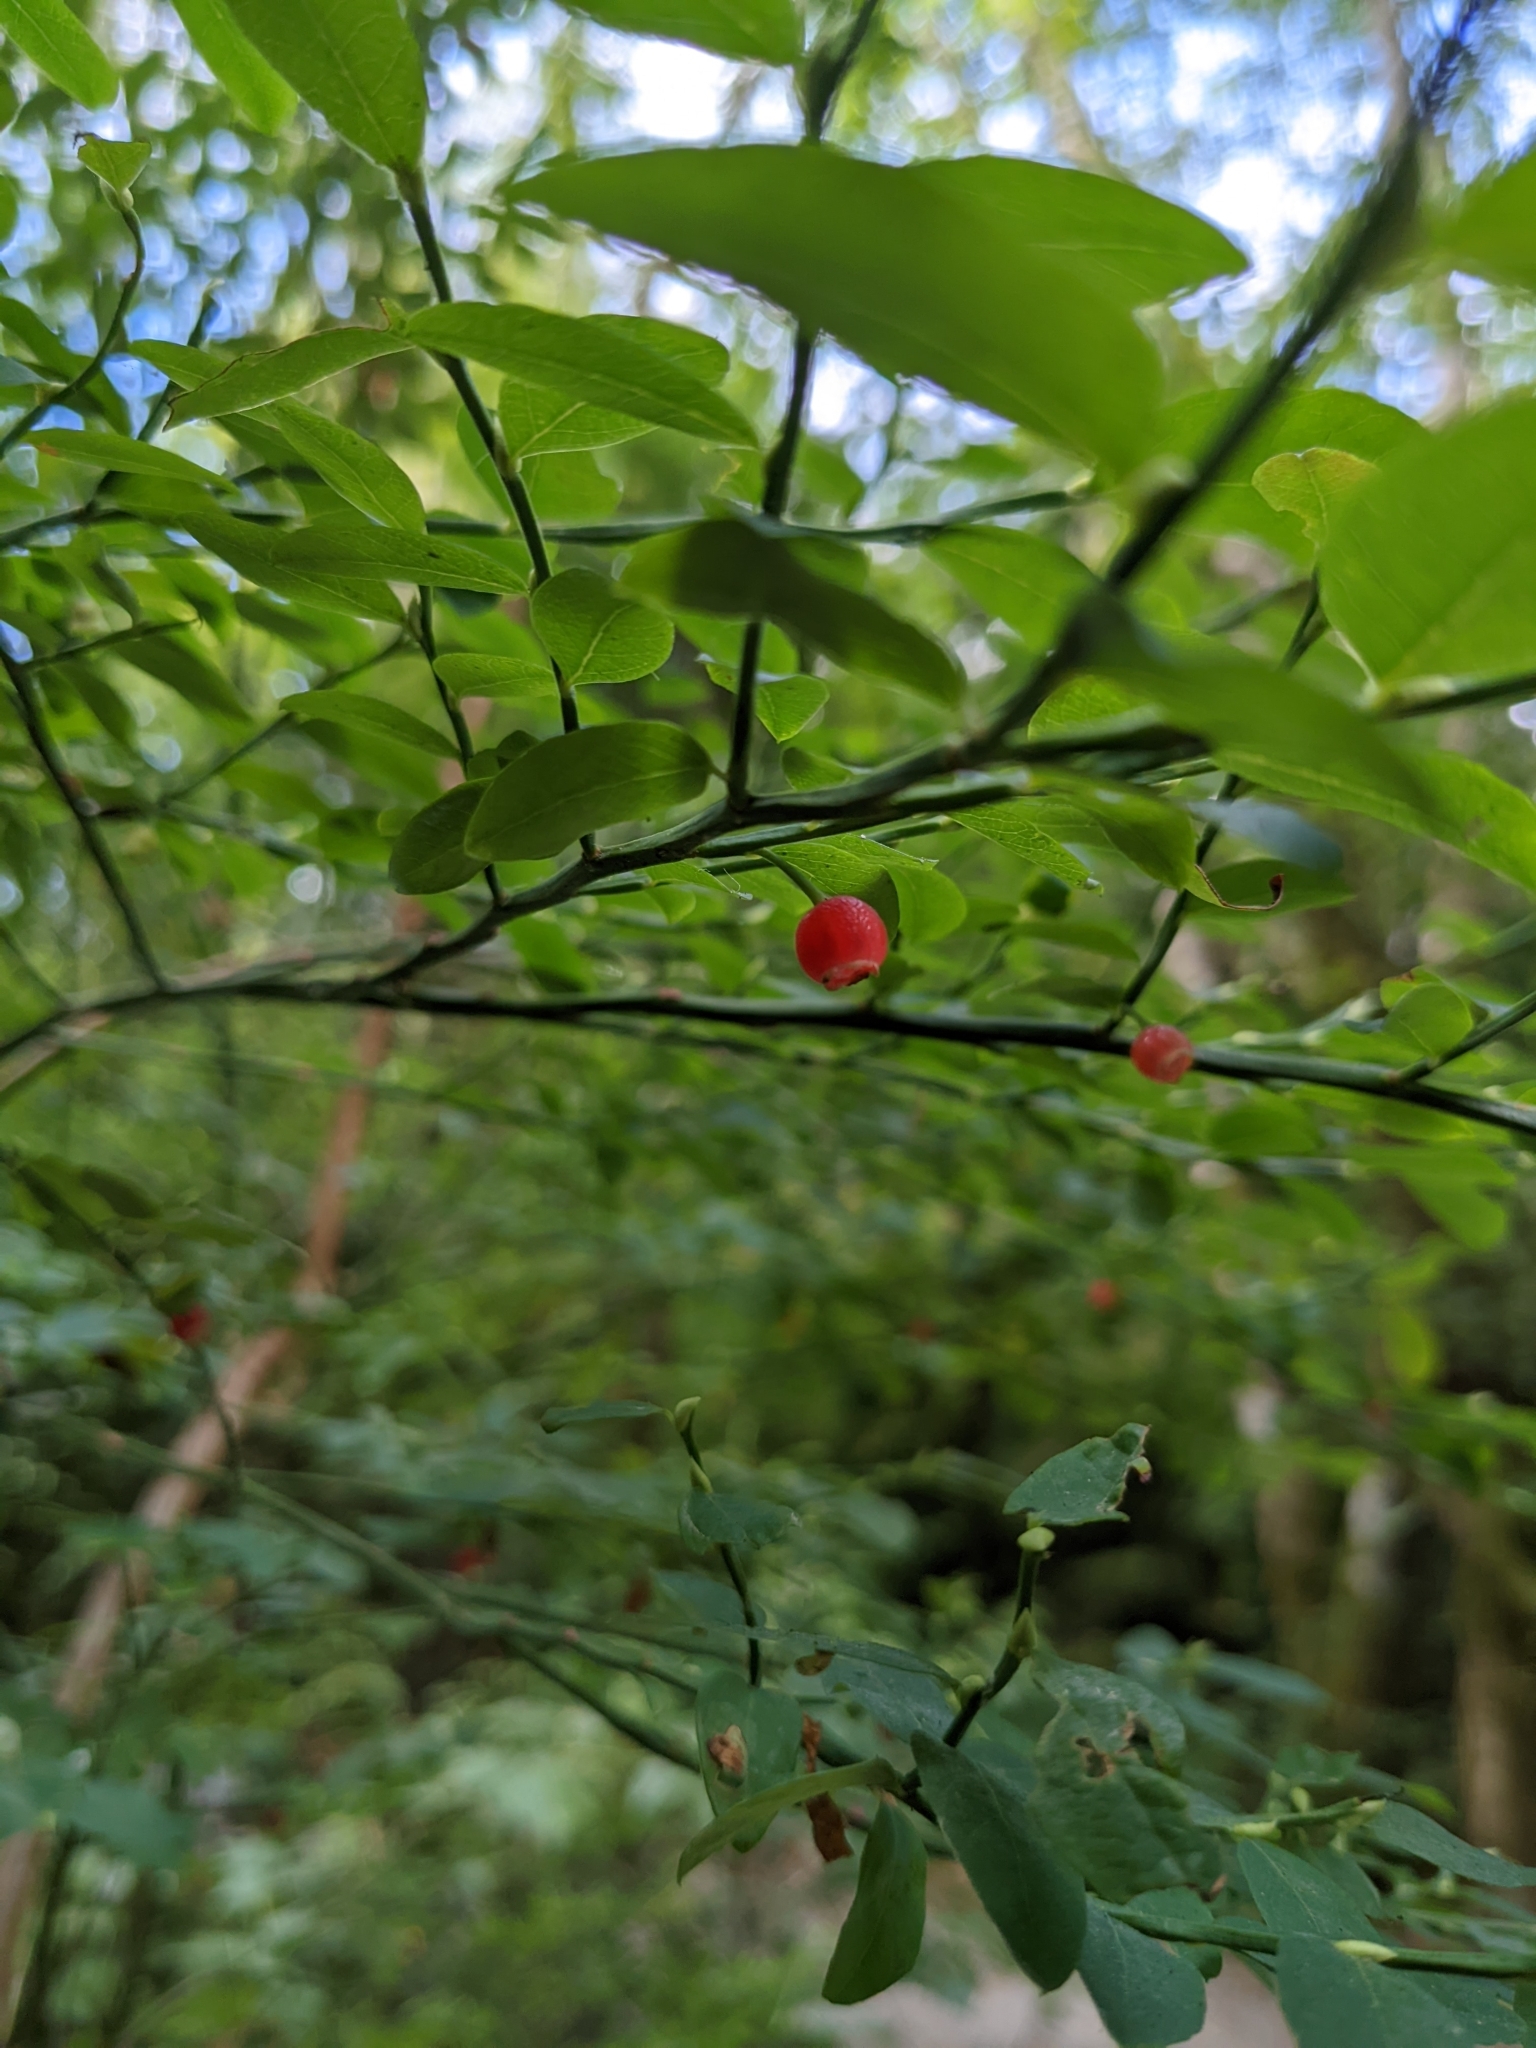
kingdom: Plantae
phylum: Tracheophyta
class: Magnoliopsida
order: Ericales
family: Ericaceae
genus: Vaccinium
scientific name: Vaccinium parvifolium
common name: Red-huckleberry
